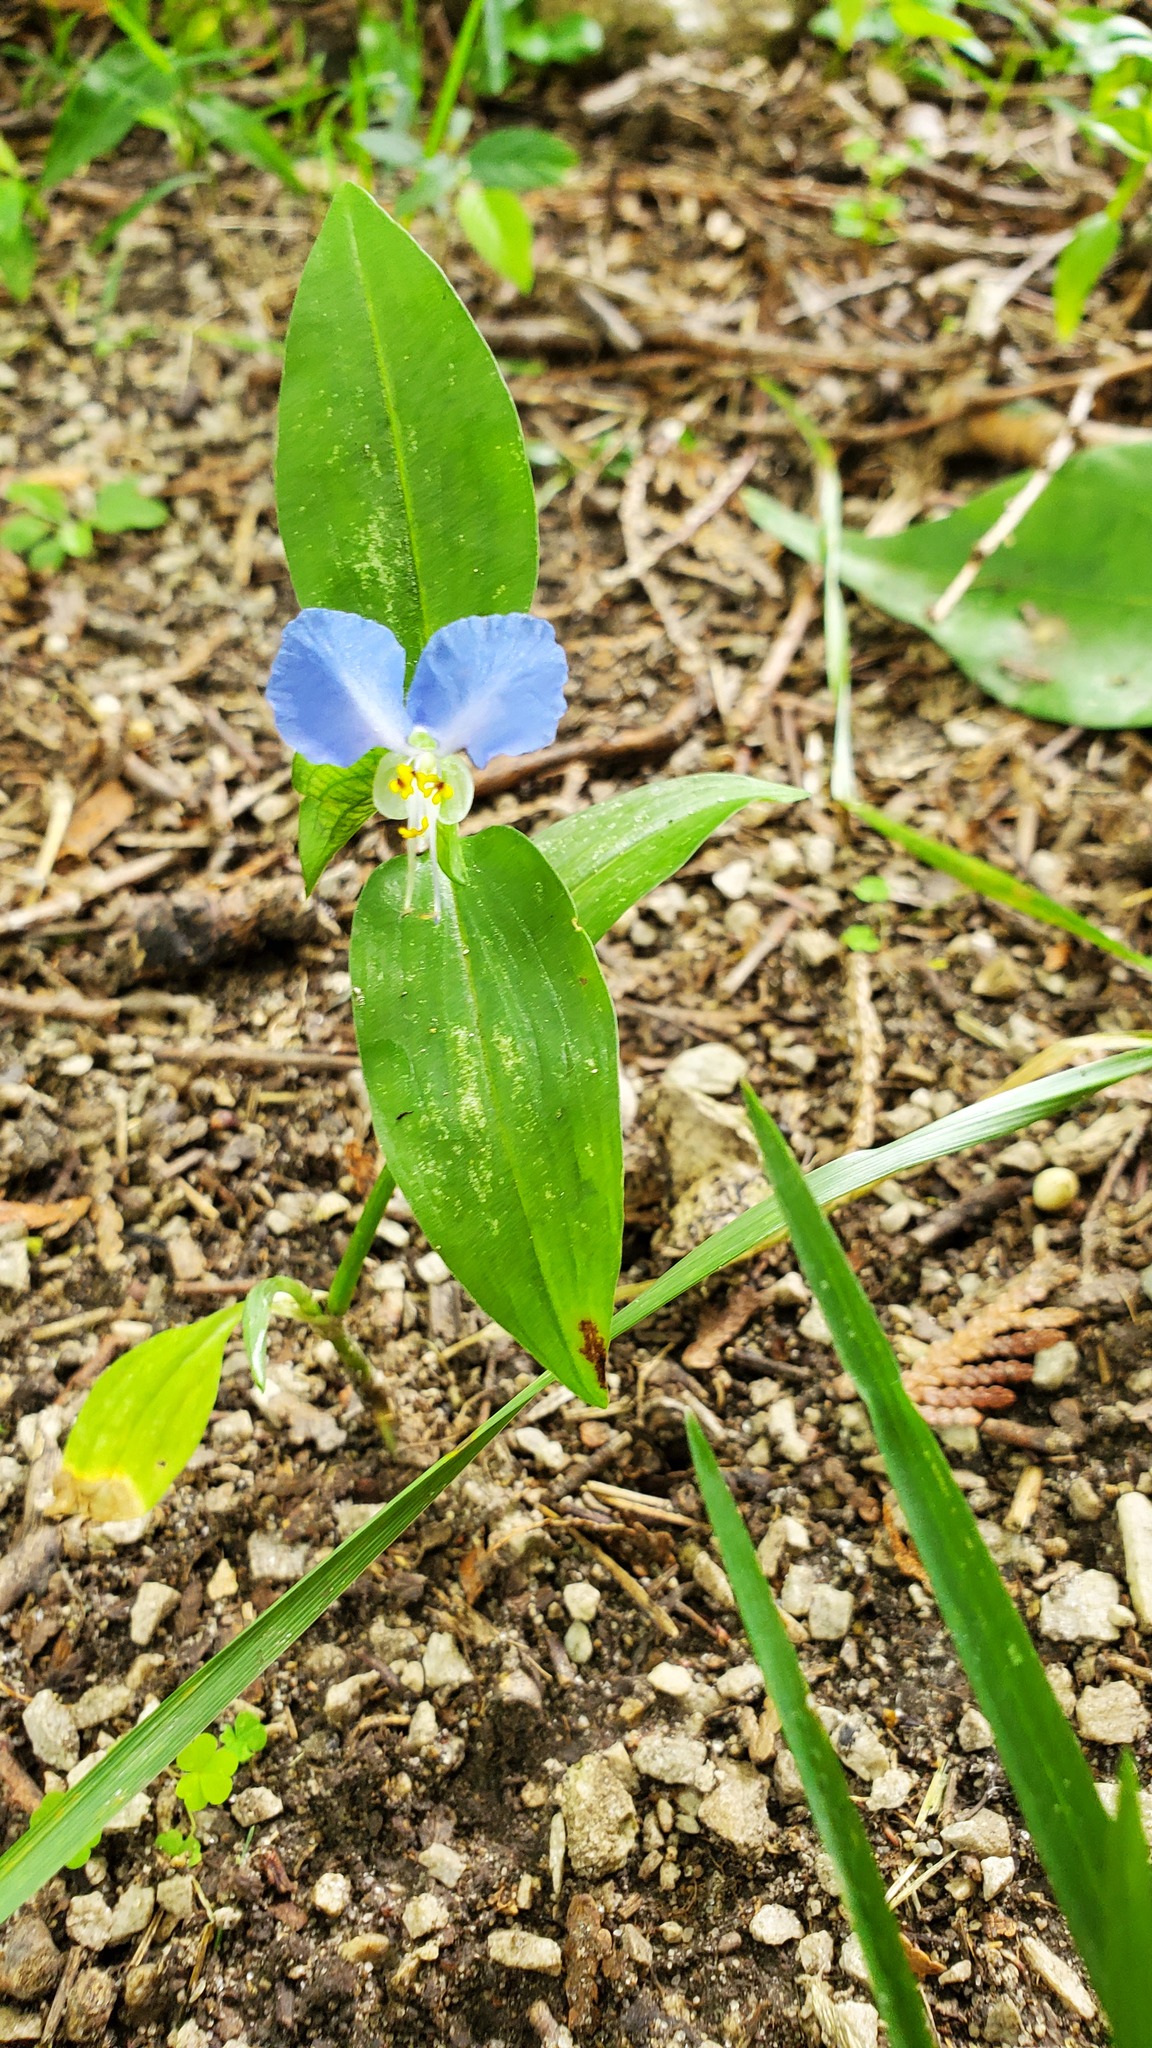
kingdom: Plantae
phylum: Tracheophyta
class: Liliopsida
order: Commelinales
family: Commelinaceae
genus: Commelina
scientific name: Commelina communis
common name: Asiatic dayflower
